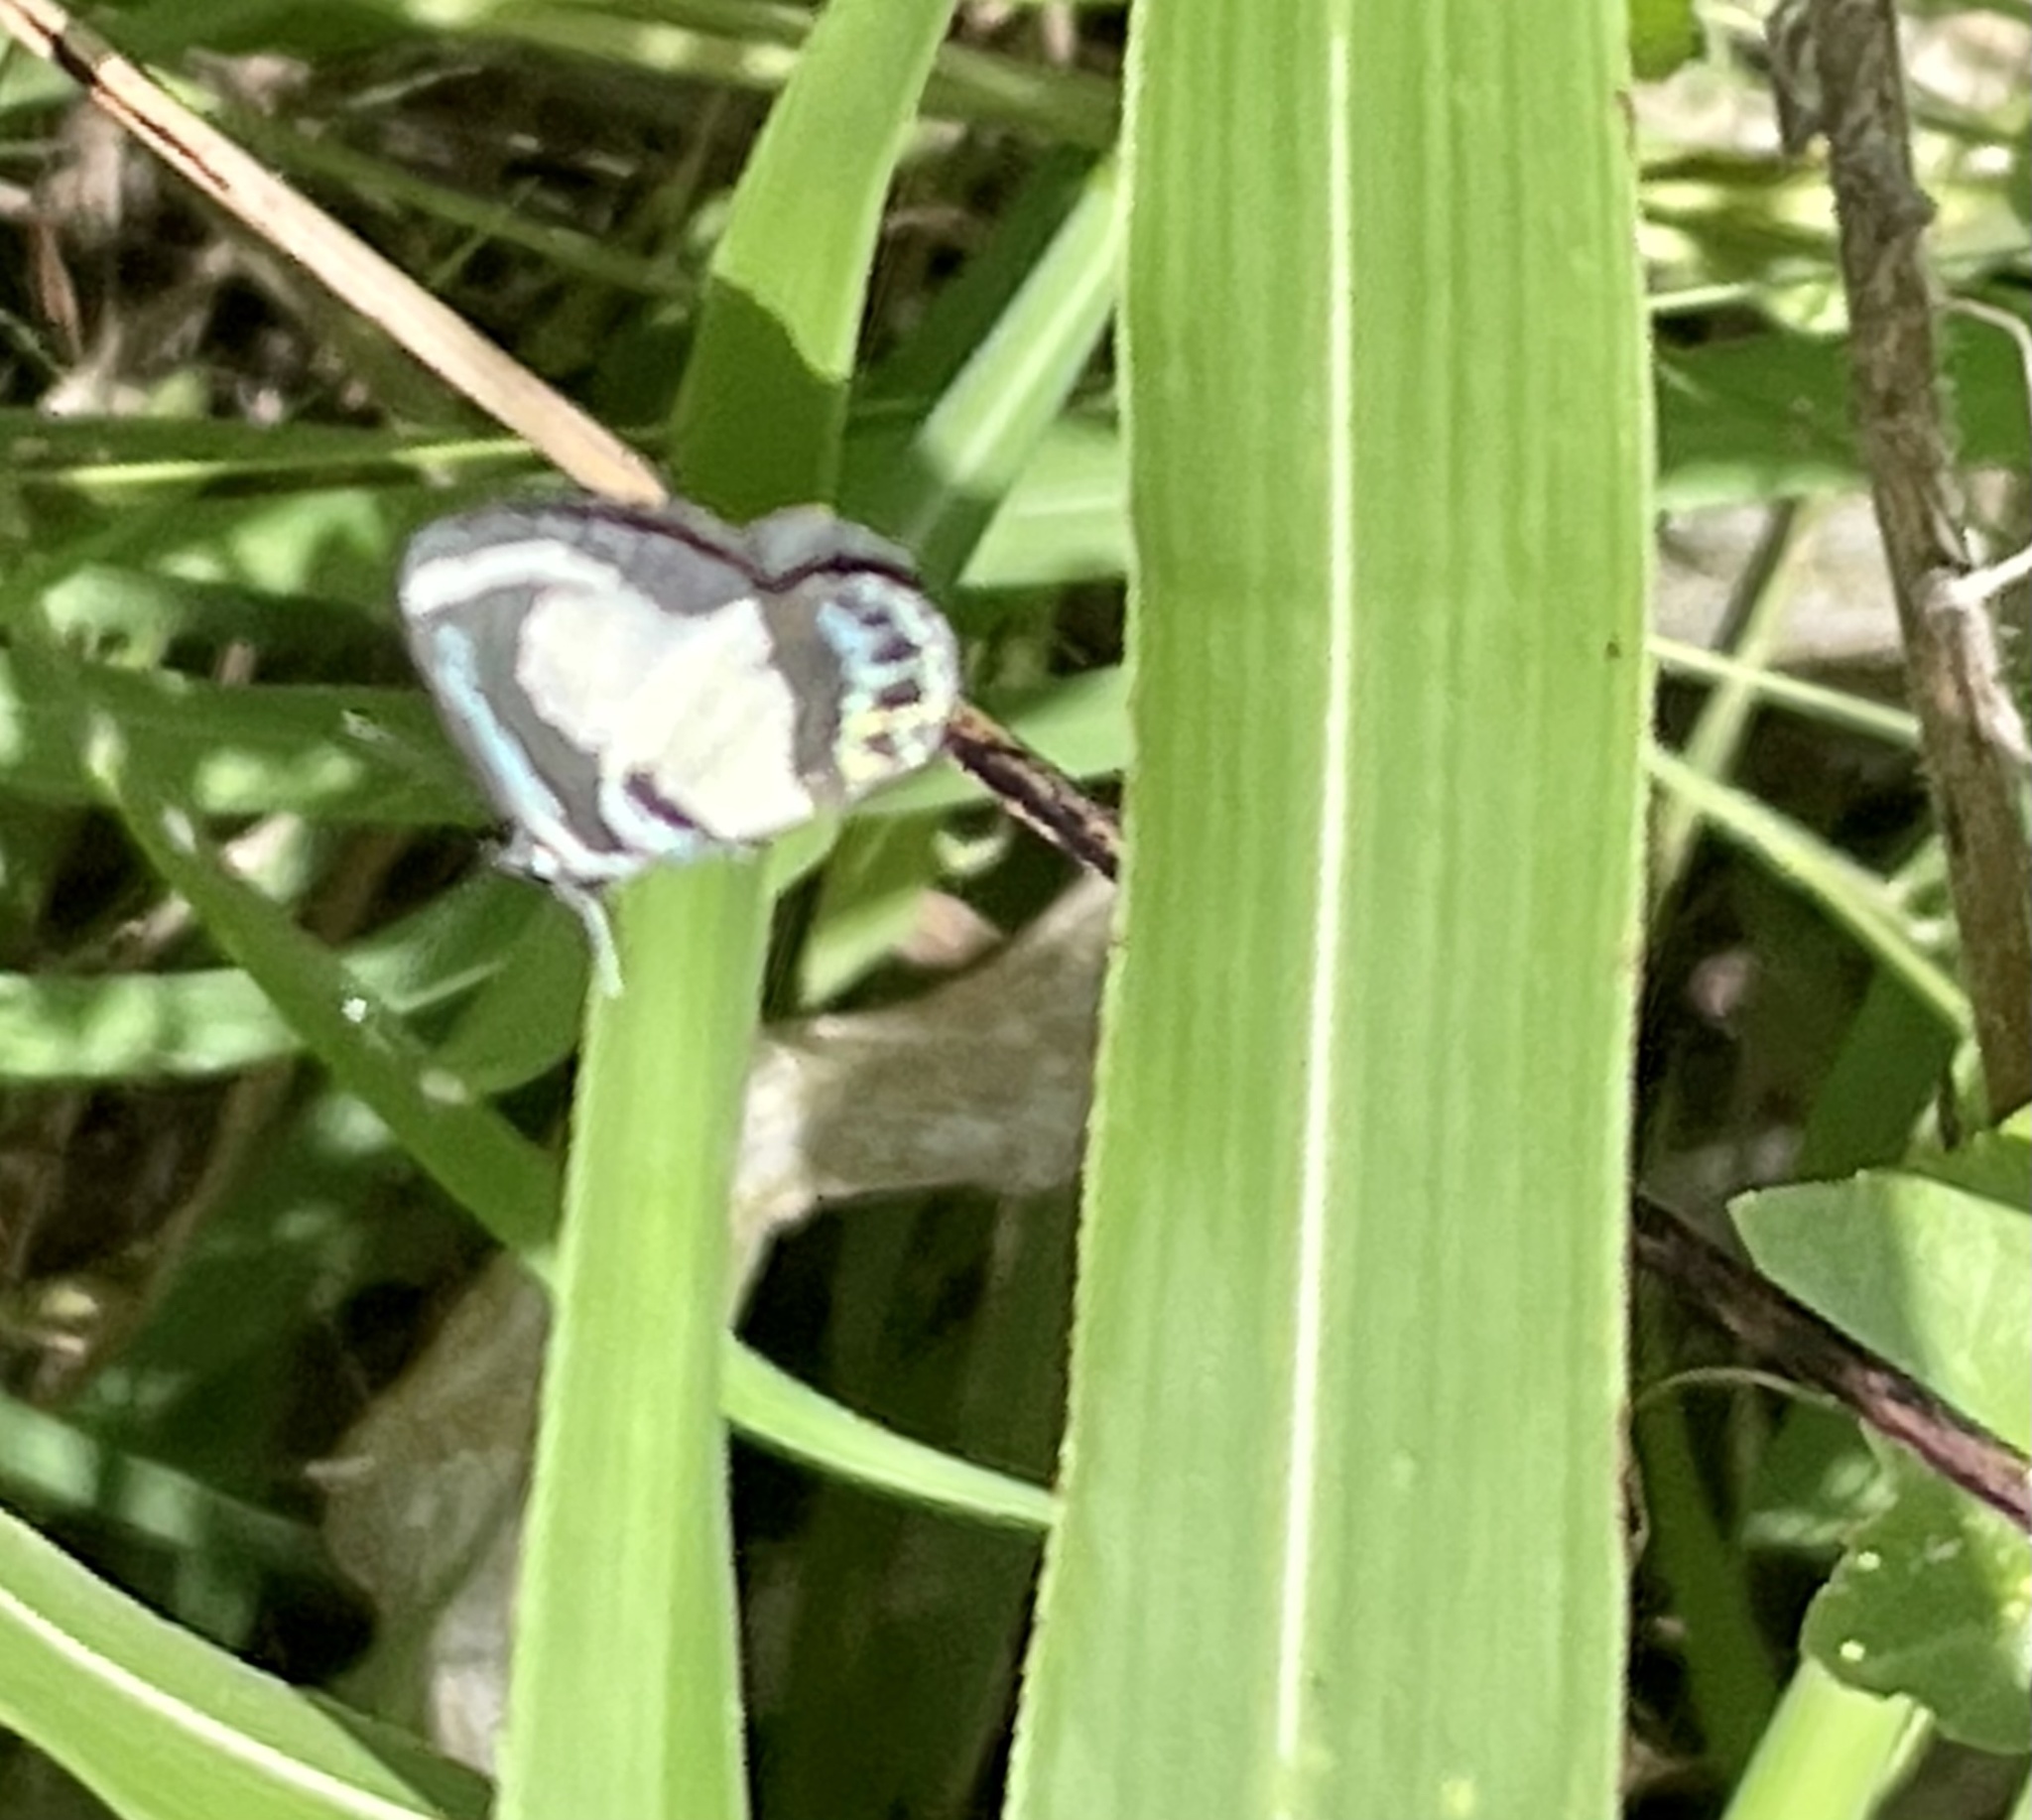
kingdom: Animalia
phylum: Arthropoda
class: Insecta
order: Lepidoptera
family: Lycaenidae
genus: Psychonotis
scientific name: Psychonotis caelius
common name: Small green banded blue
